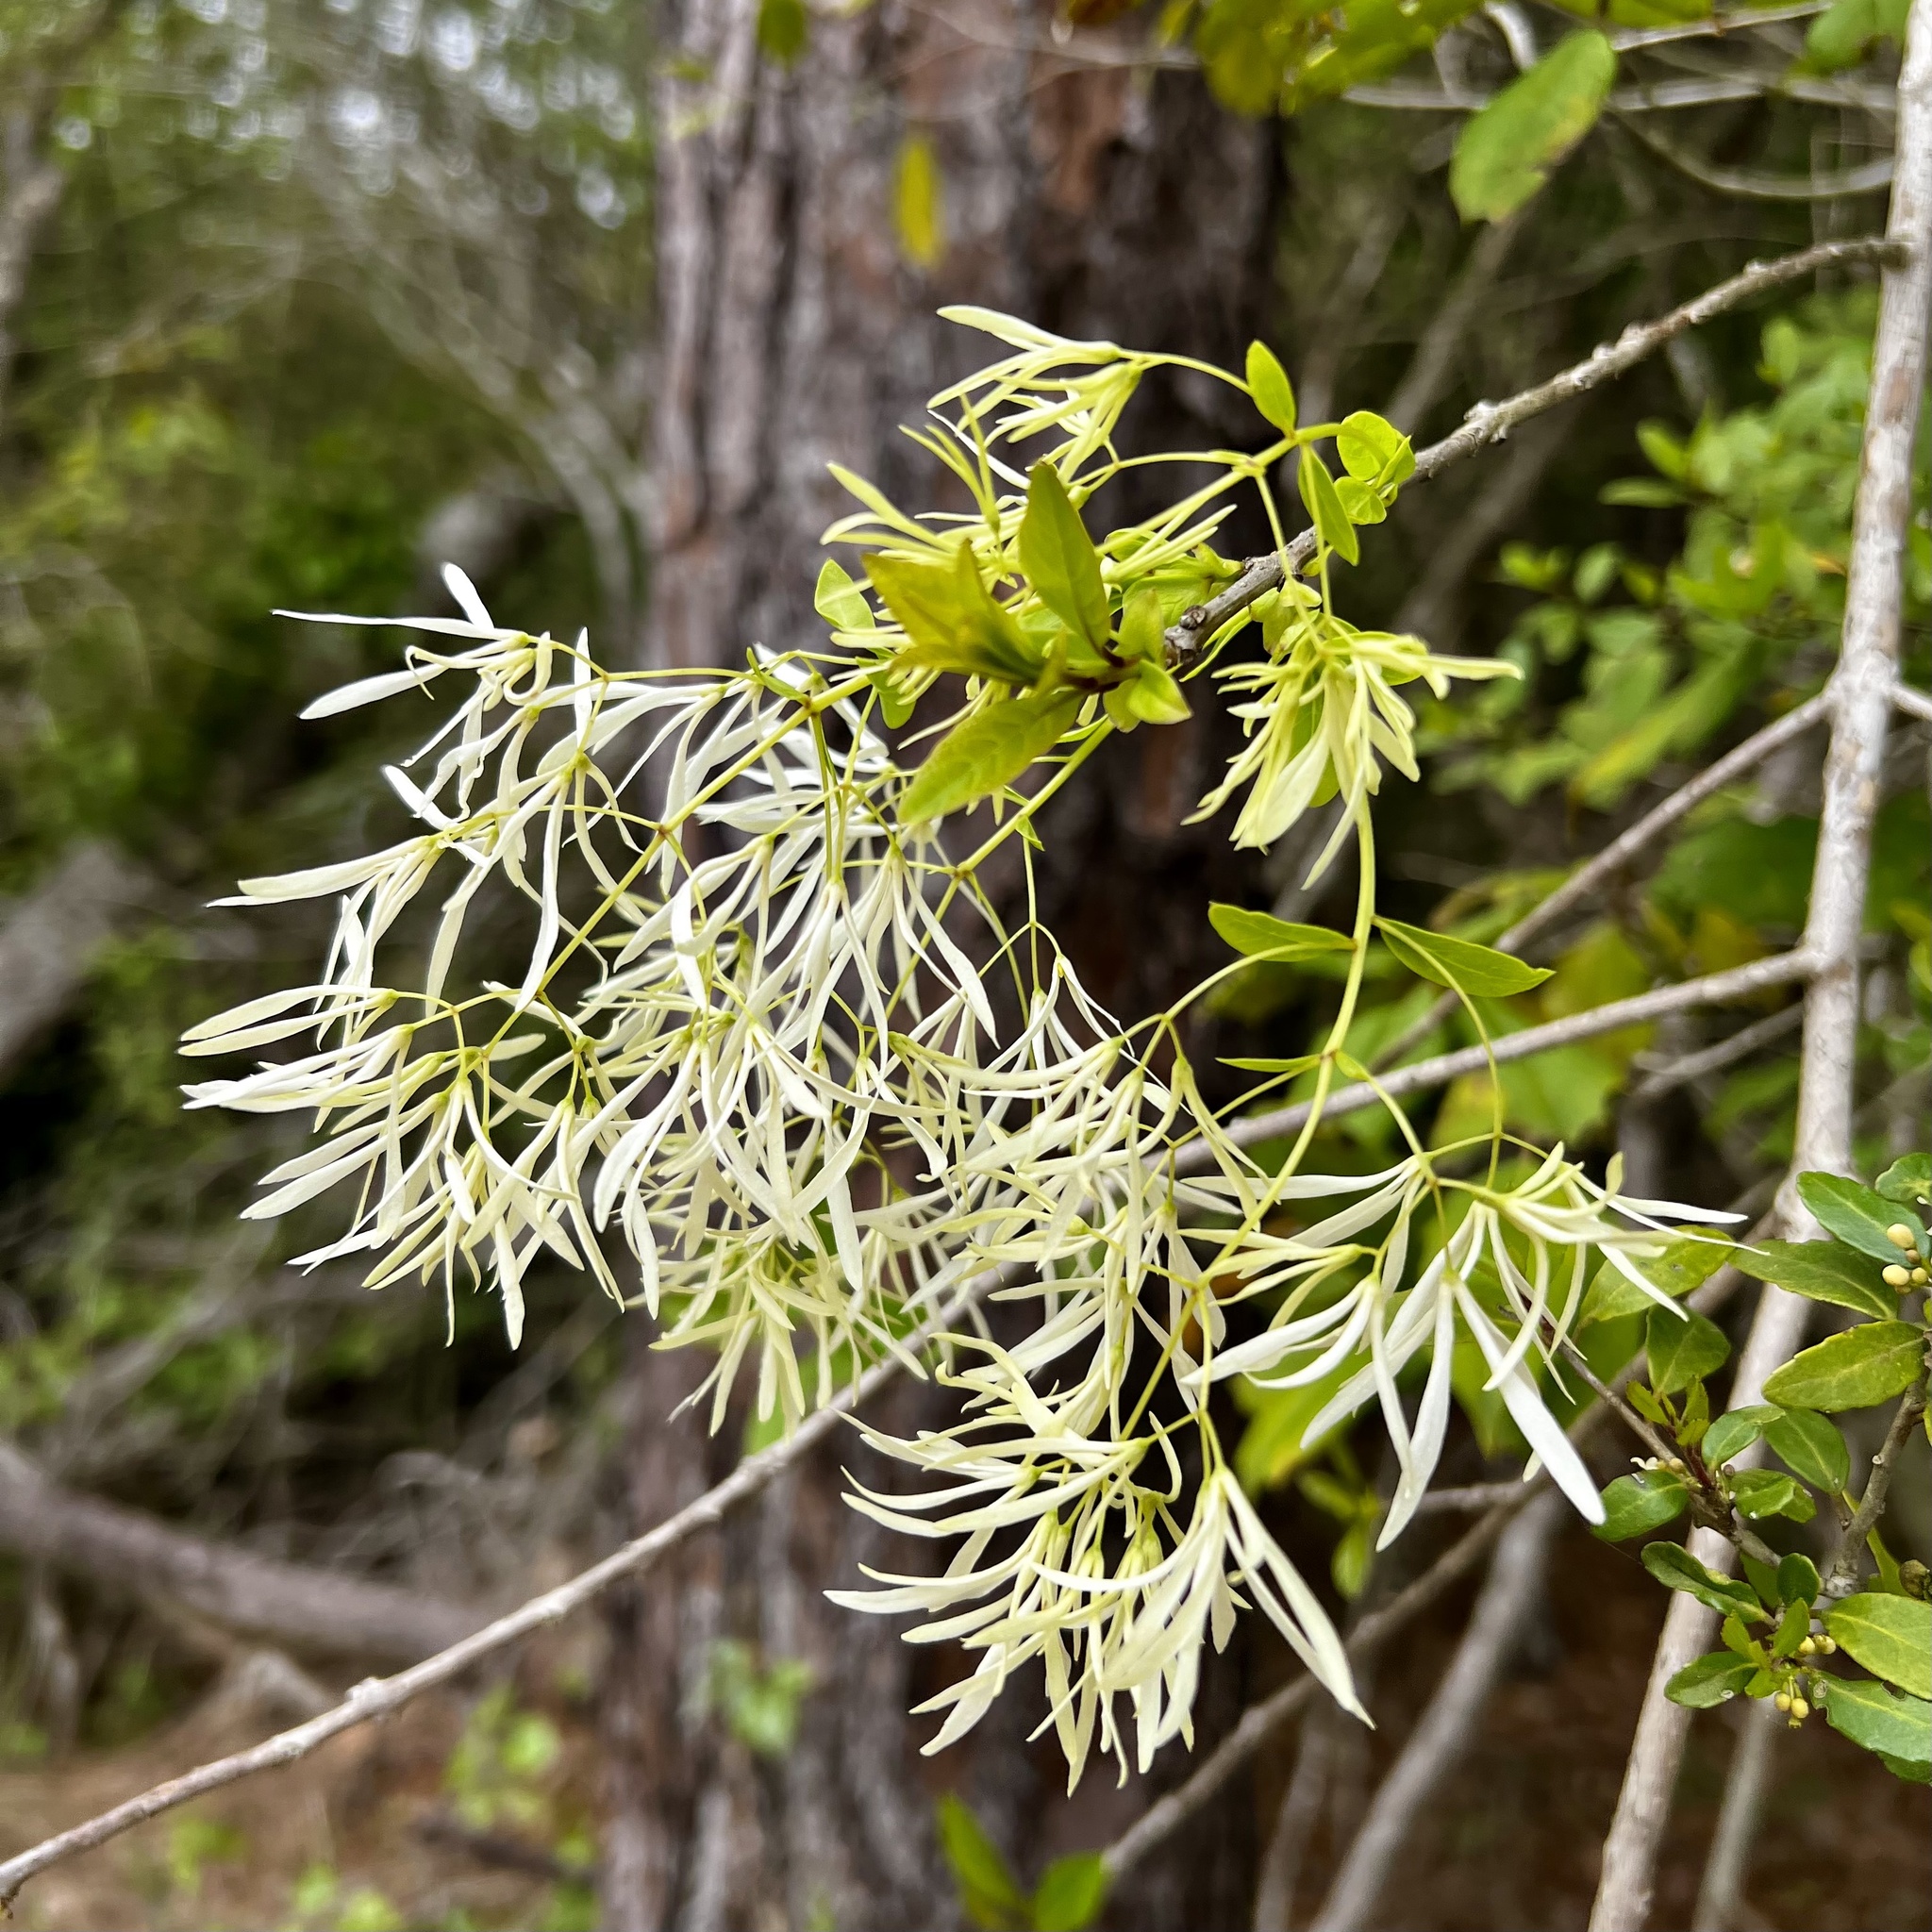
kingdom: Plantae
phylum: Tracheophyta
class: Magnoliopsida
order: Lamiales
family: Oleaceae
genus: Chionanthus
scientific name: Chionanthus virginicus
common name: American fringetree
